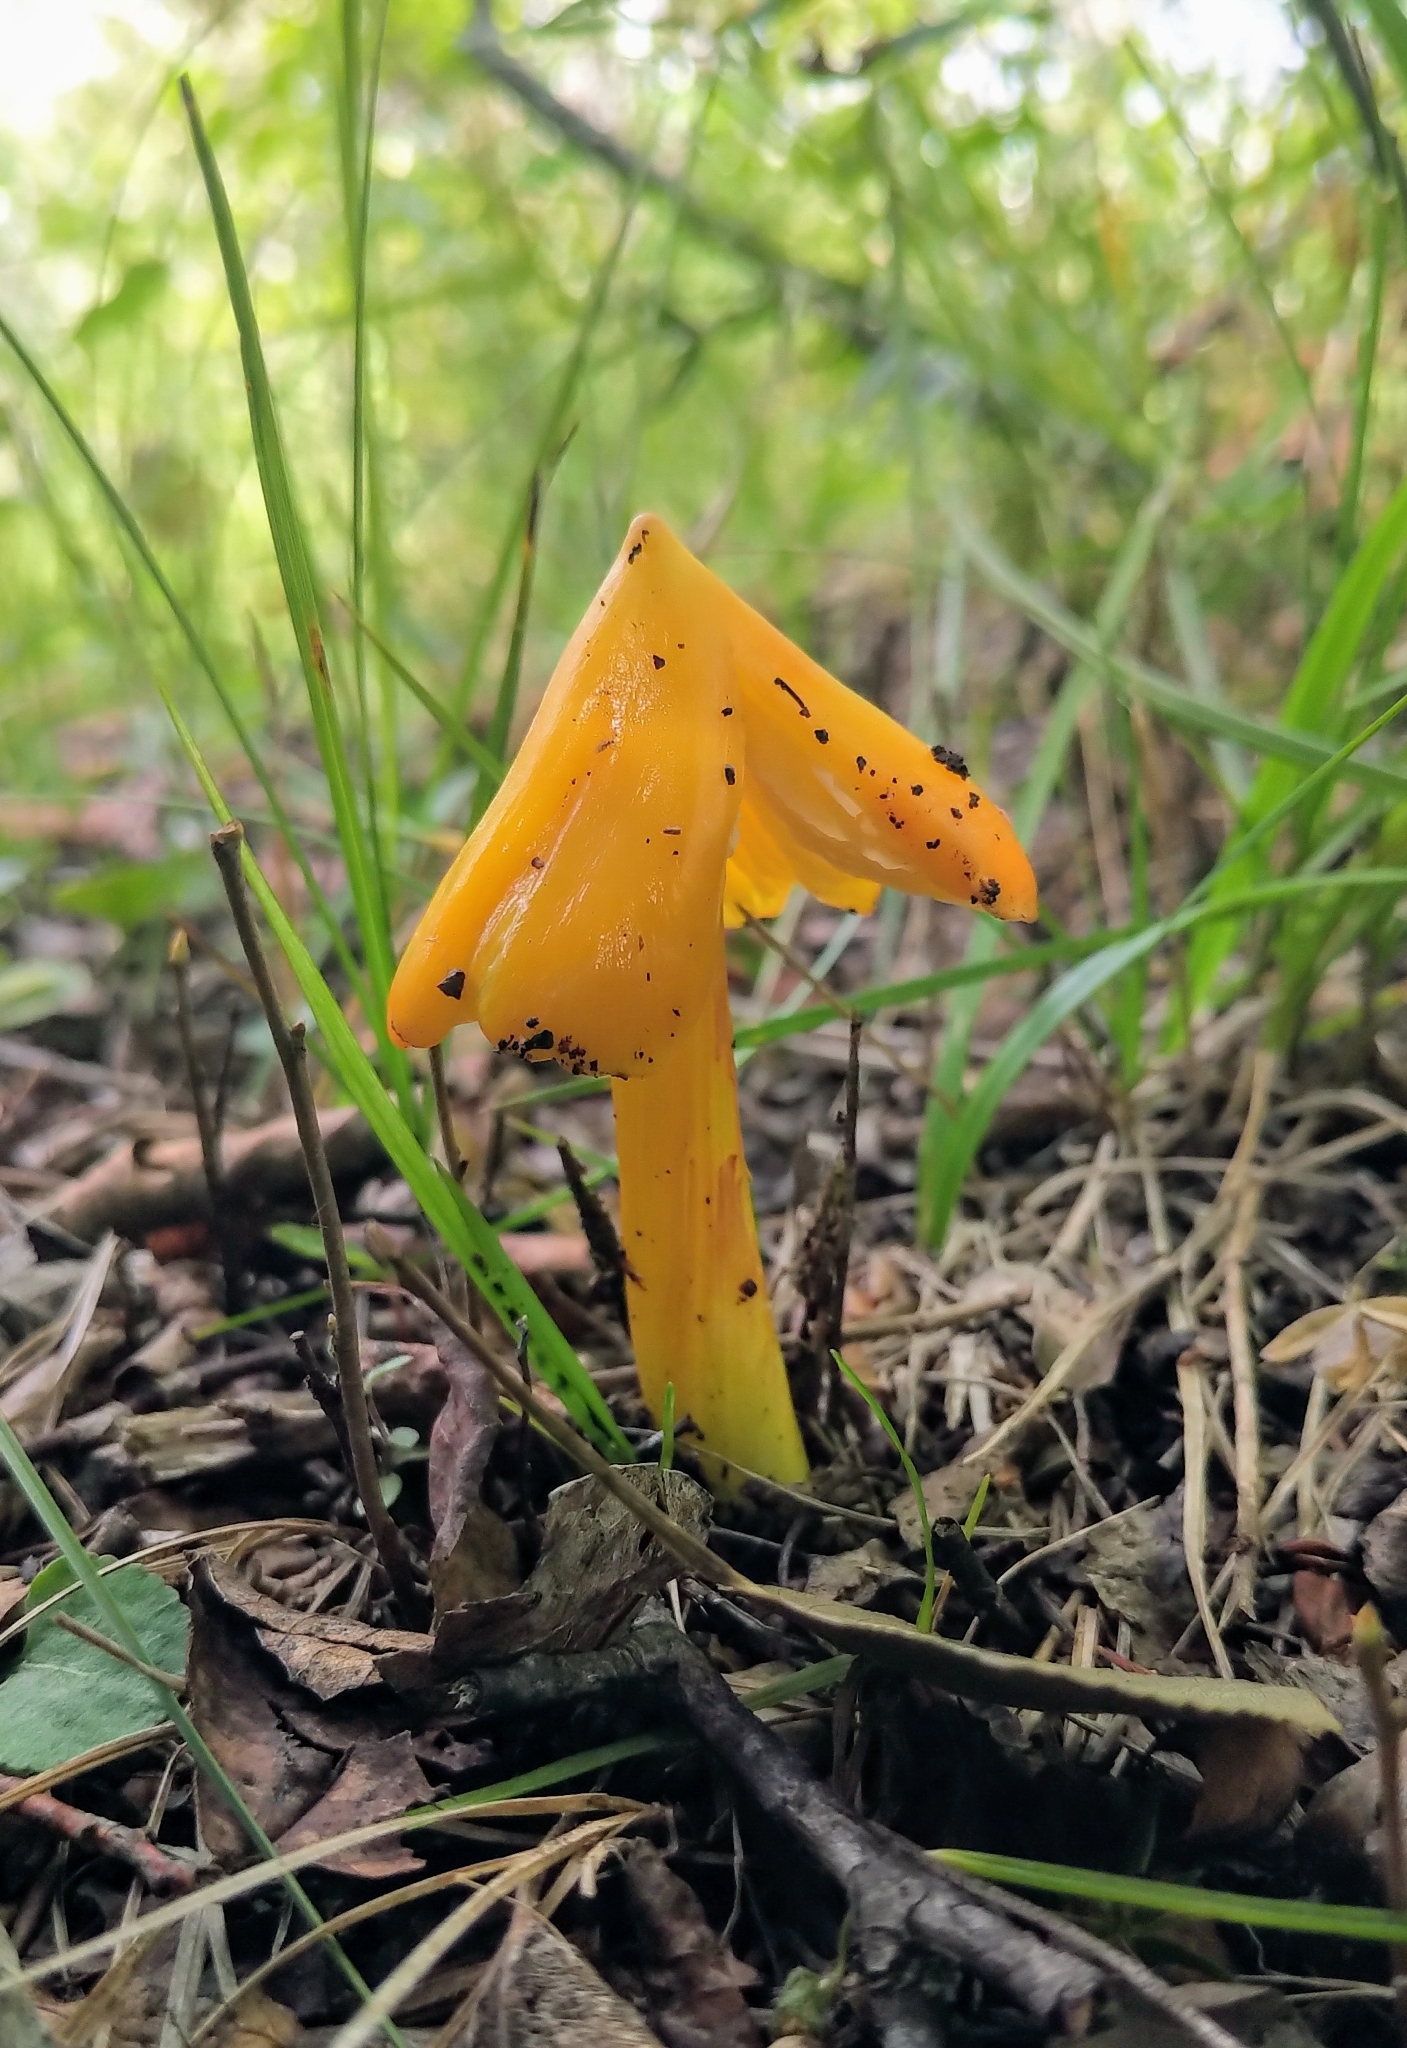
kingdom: Fungi
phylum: Basidiomycota
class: Agaricomycetes
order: Agaricales
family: Hygrophoraceae
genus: Hygrocybe
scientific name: Hygrocybe flavescens
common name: Golden waxy cap
